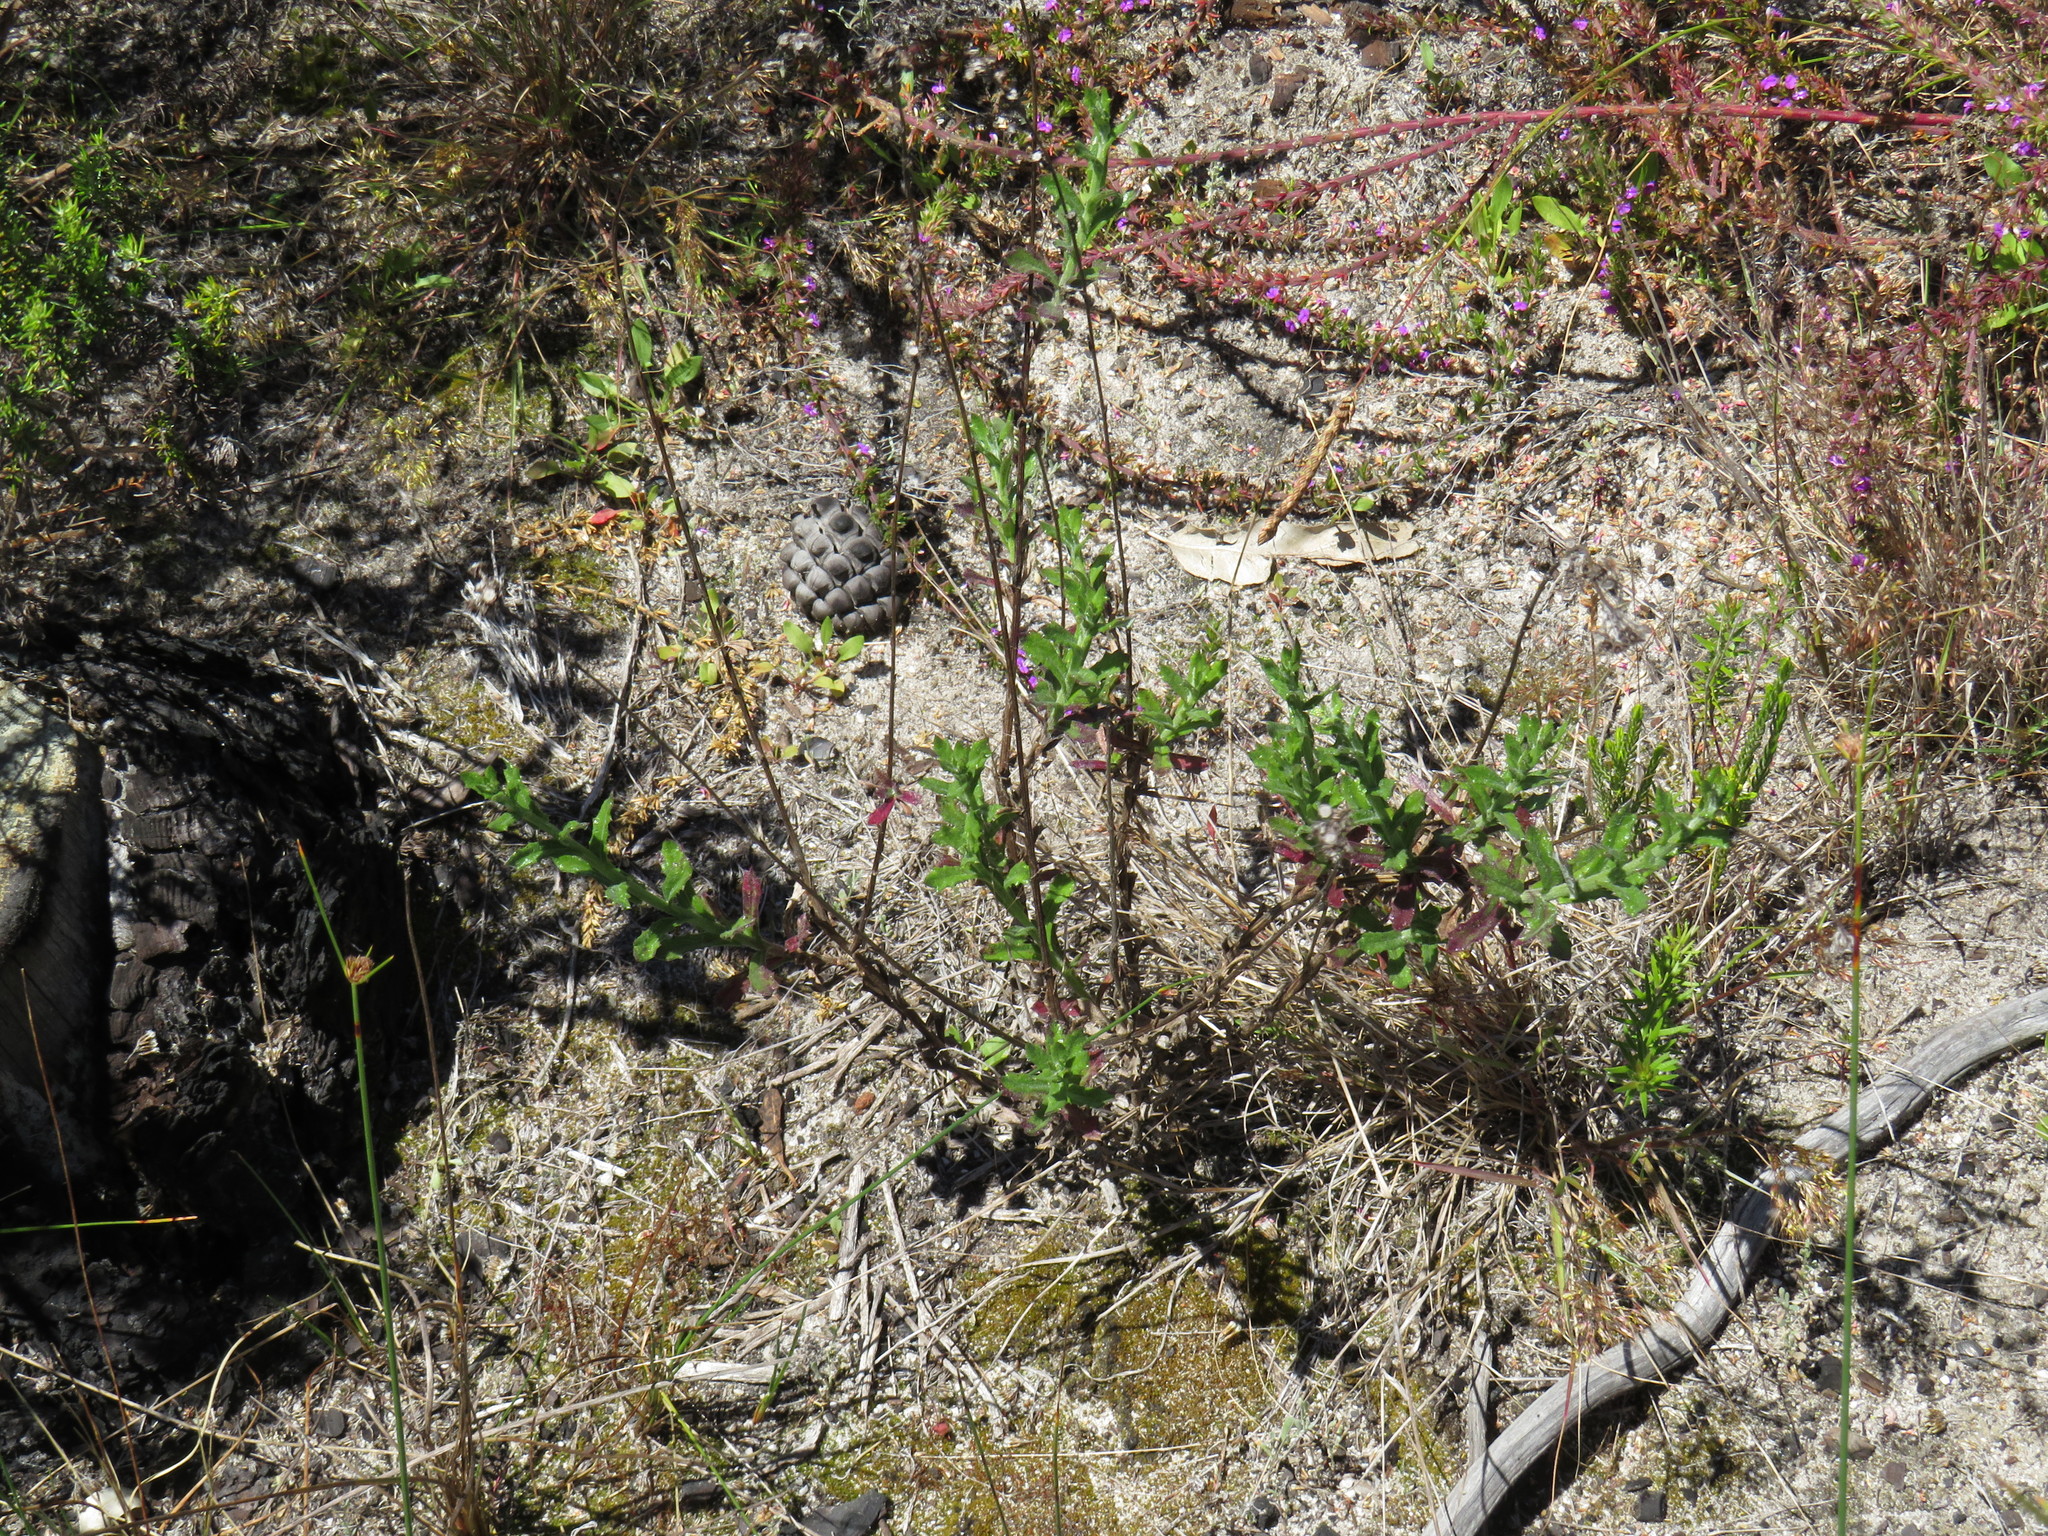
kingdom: Plantae
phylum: Tracheophyta
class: Magnoliopsida
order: Asterales
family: Asteraceae
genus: Senecio
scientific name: Senecio pubigerus
